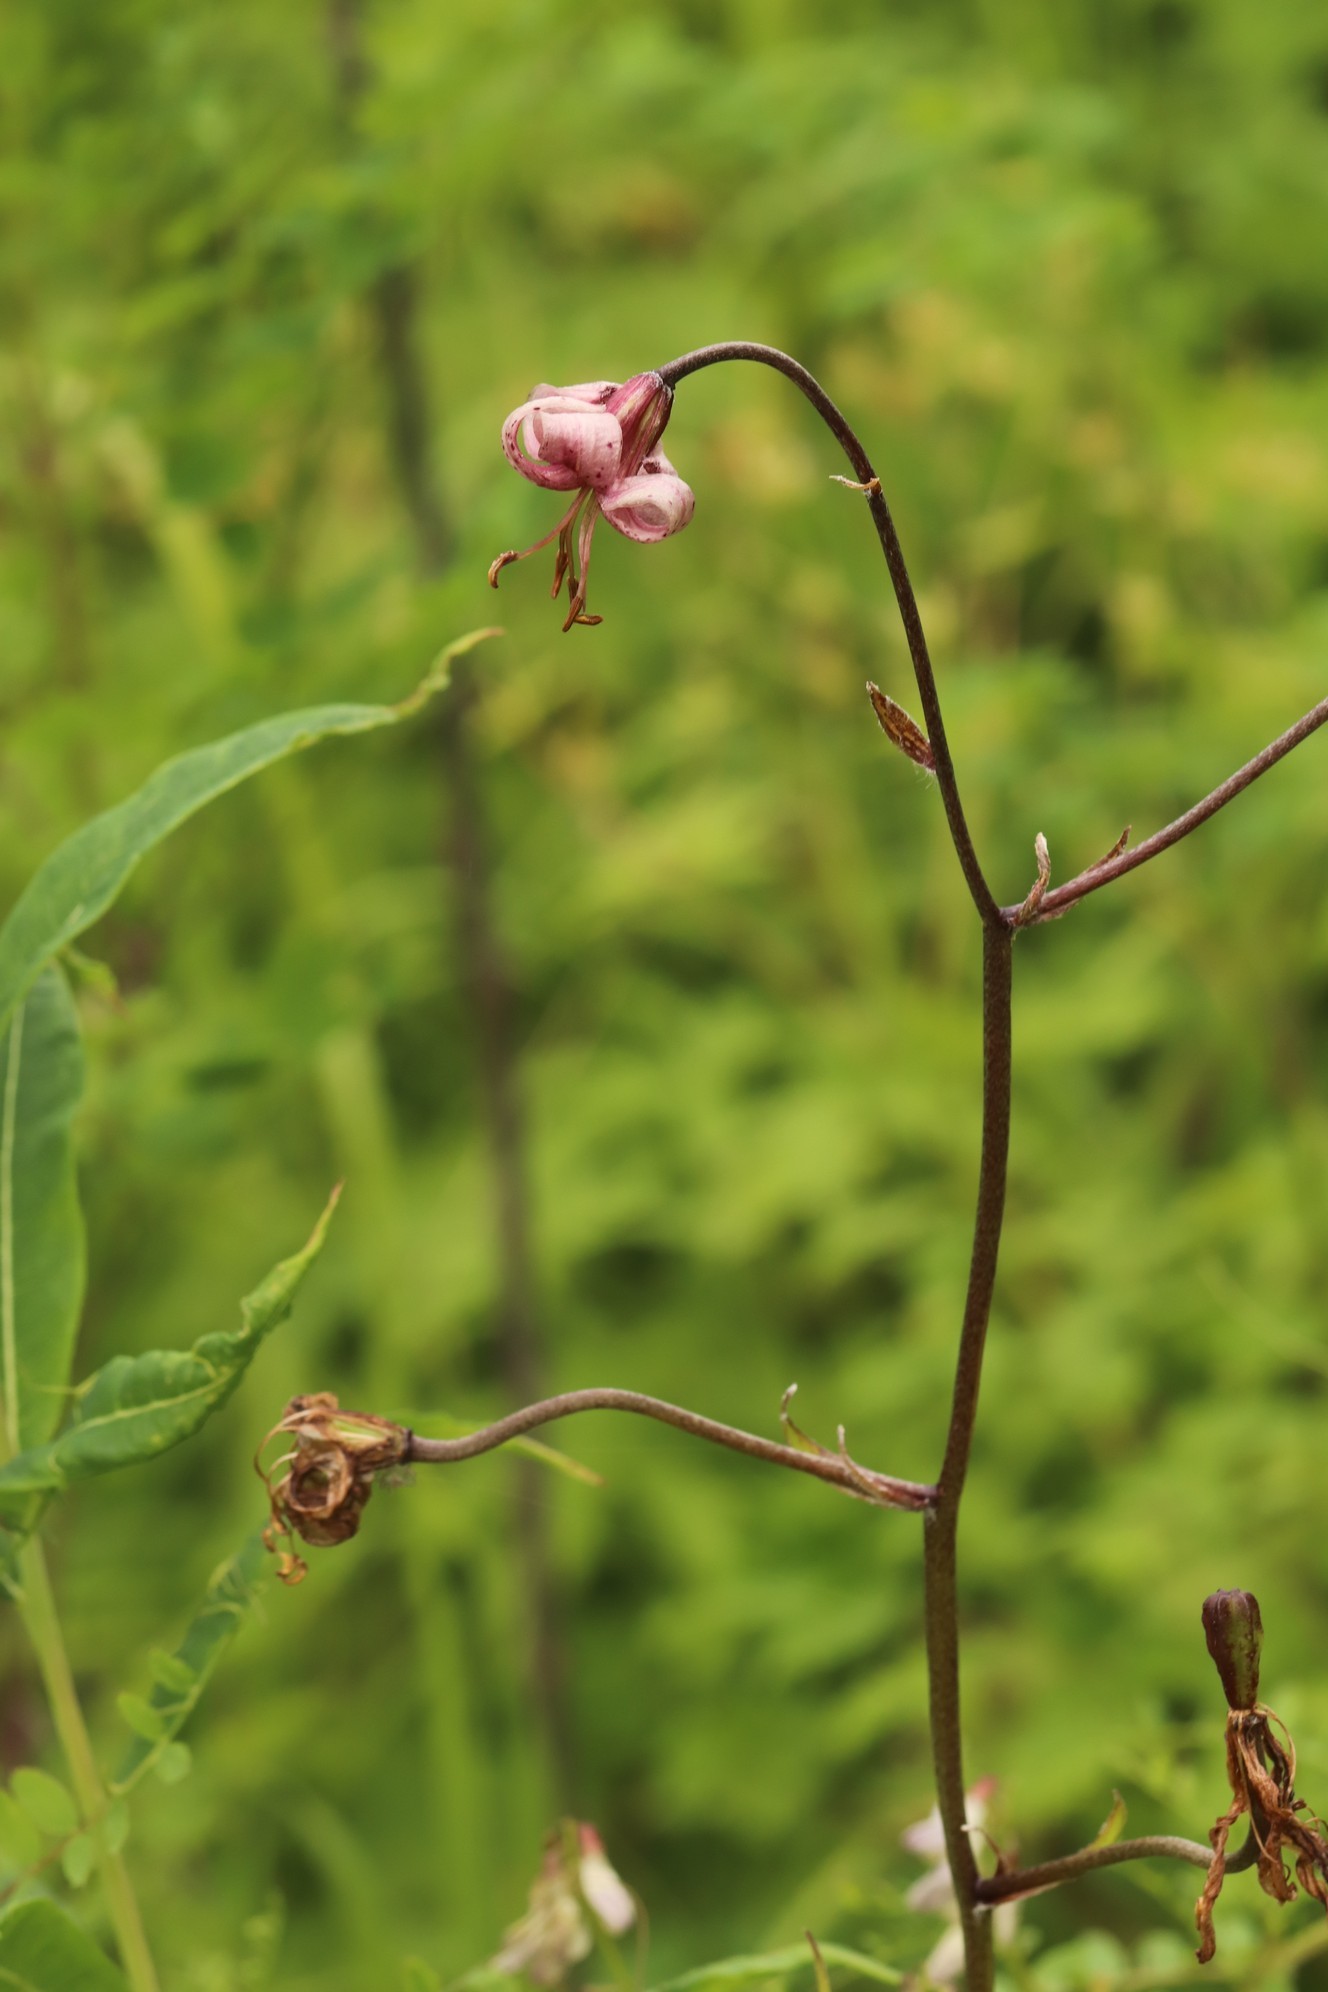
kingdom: Plantae
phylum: Tracheophyta
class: Liliopsida
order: Liliales
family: Liliaceae
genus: Lilium
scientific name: Lilium martagon
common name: Martagon lily
